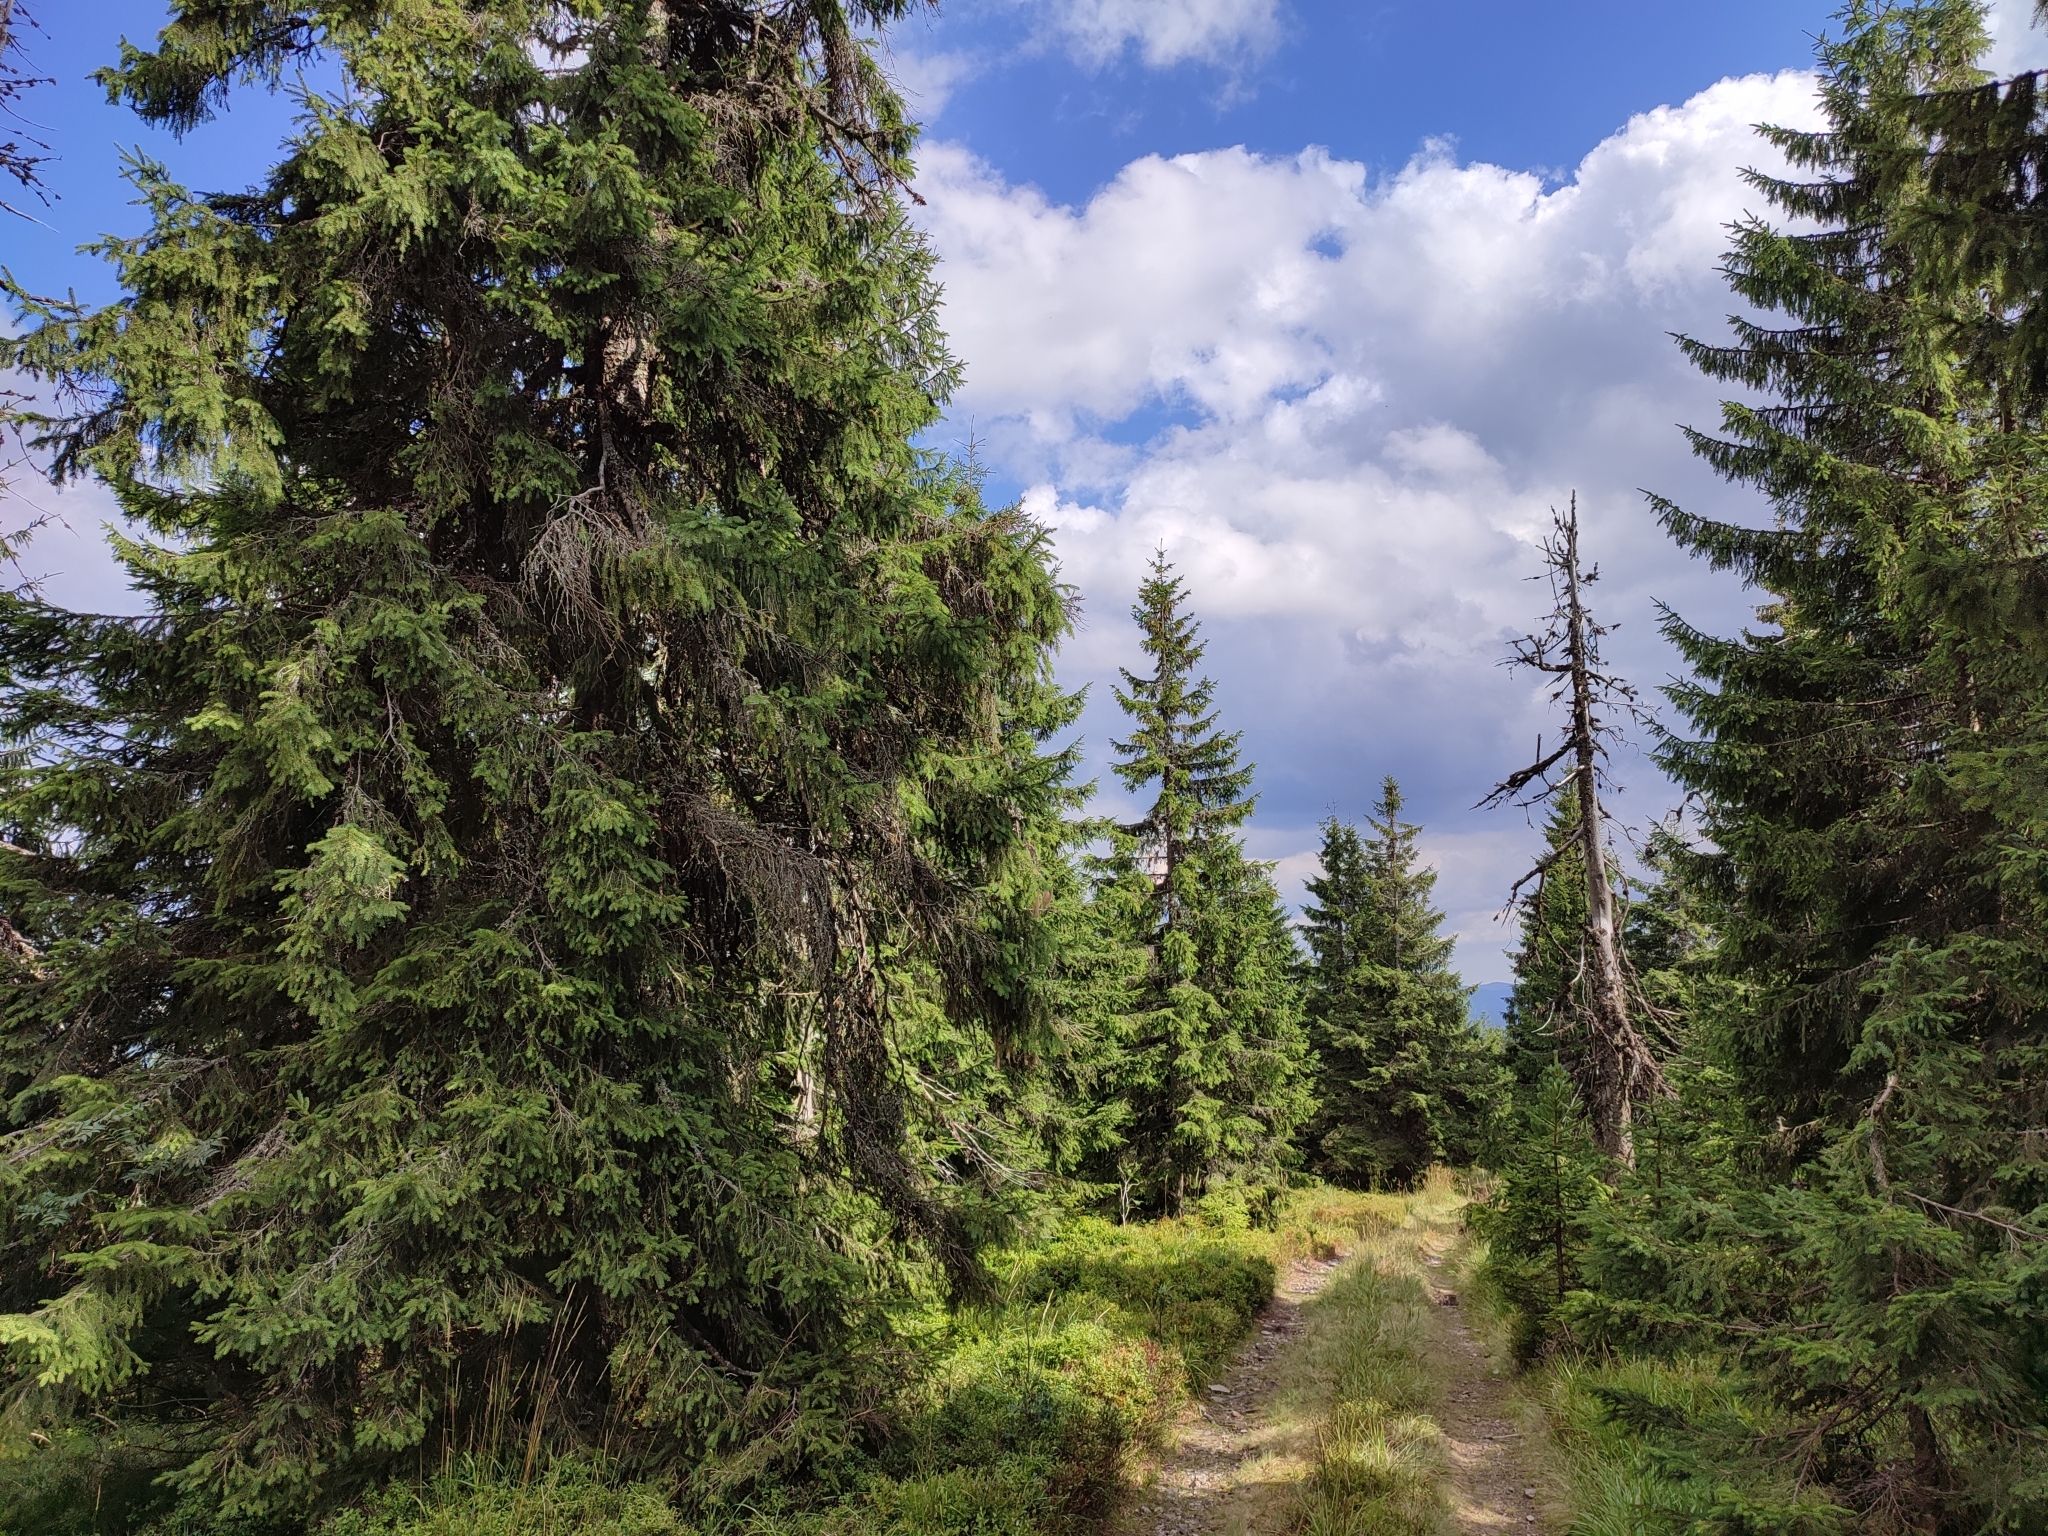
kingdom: Plantae
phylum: Tracheophyta
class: Pinopsida
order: Pinales
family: Pinaceae
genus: Picea
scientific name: Picea abies
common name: Norway spruce
